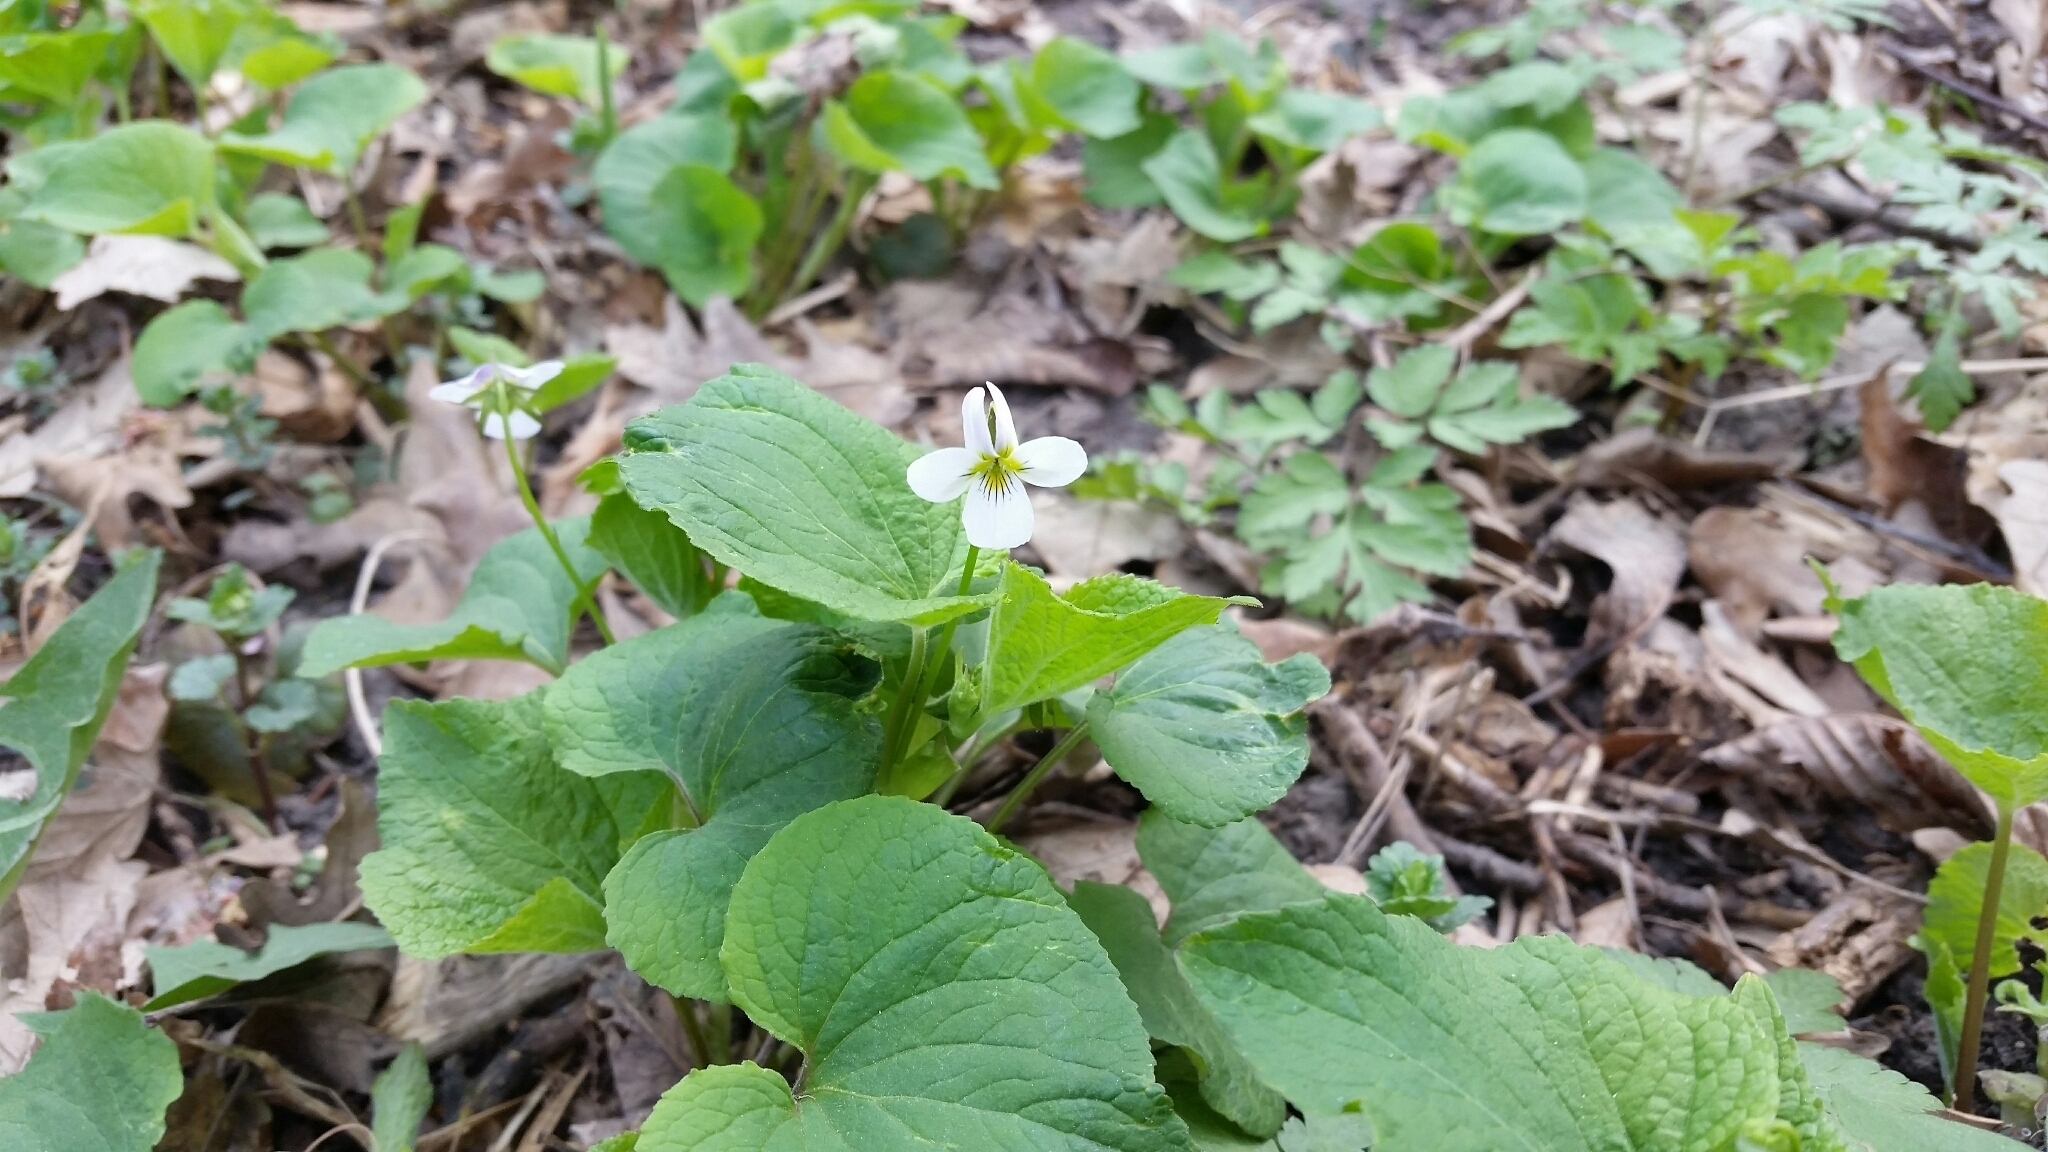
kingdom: Plantae
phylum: Tracheophyta
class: Magnoliopsida
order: Malpighiales
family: Violaceae
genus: Viola
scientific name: Viola canadensis
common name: Canada violet
